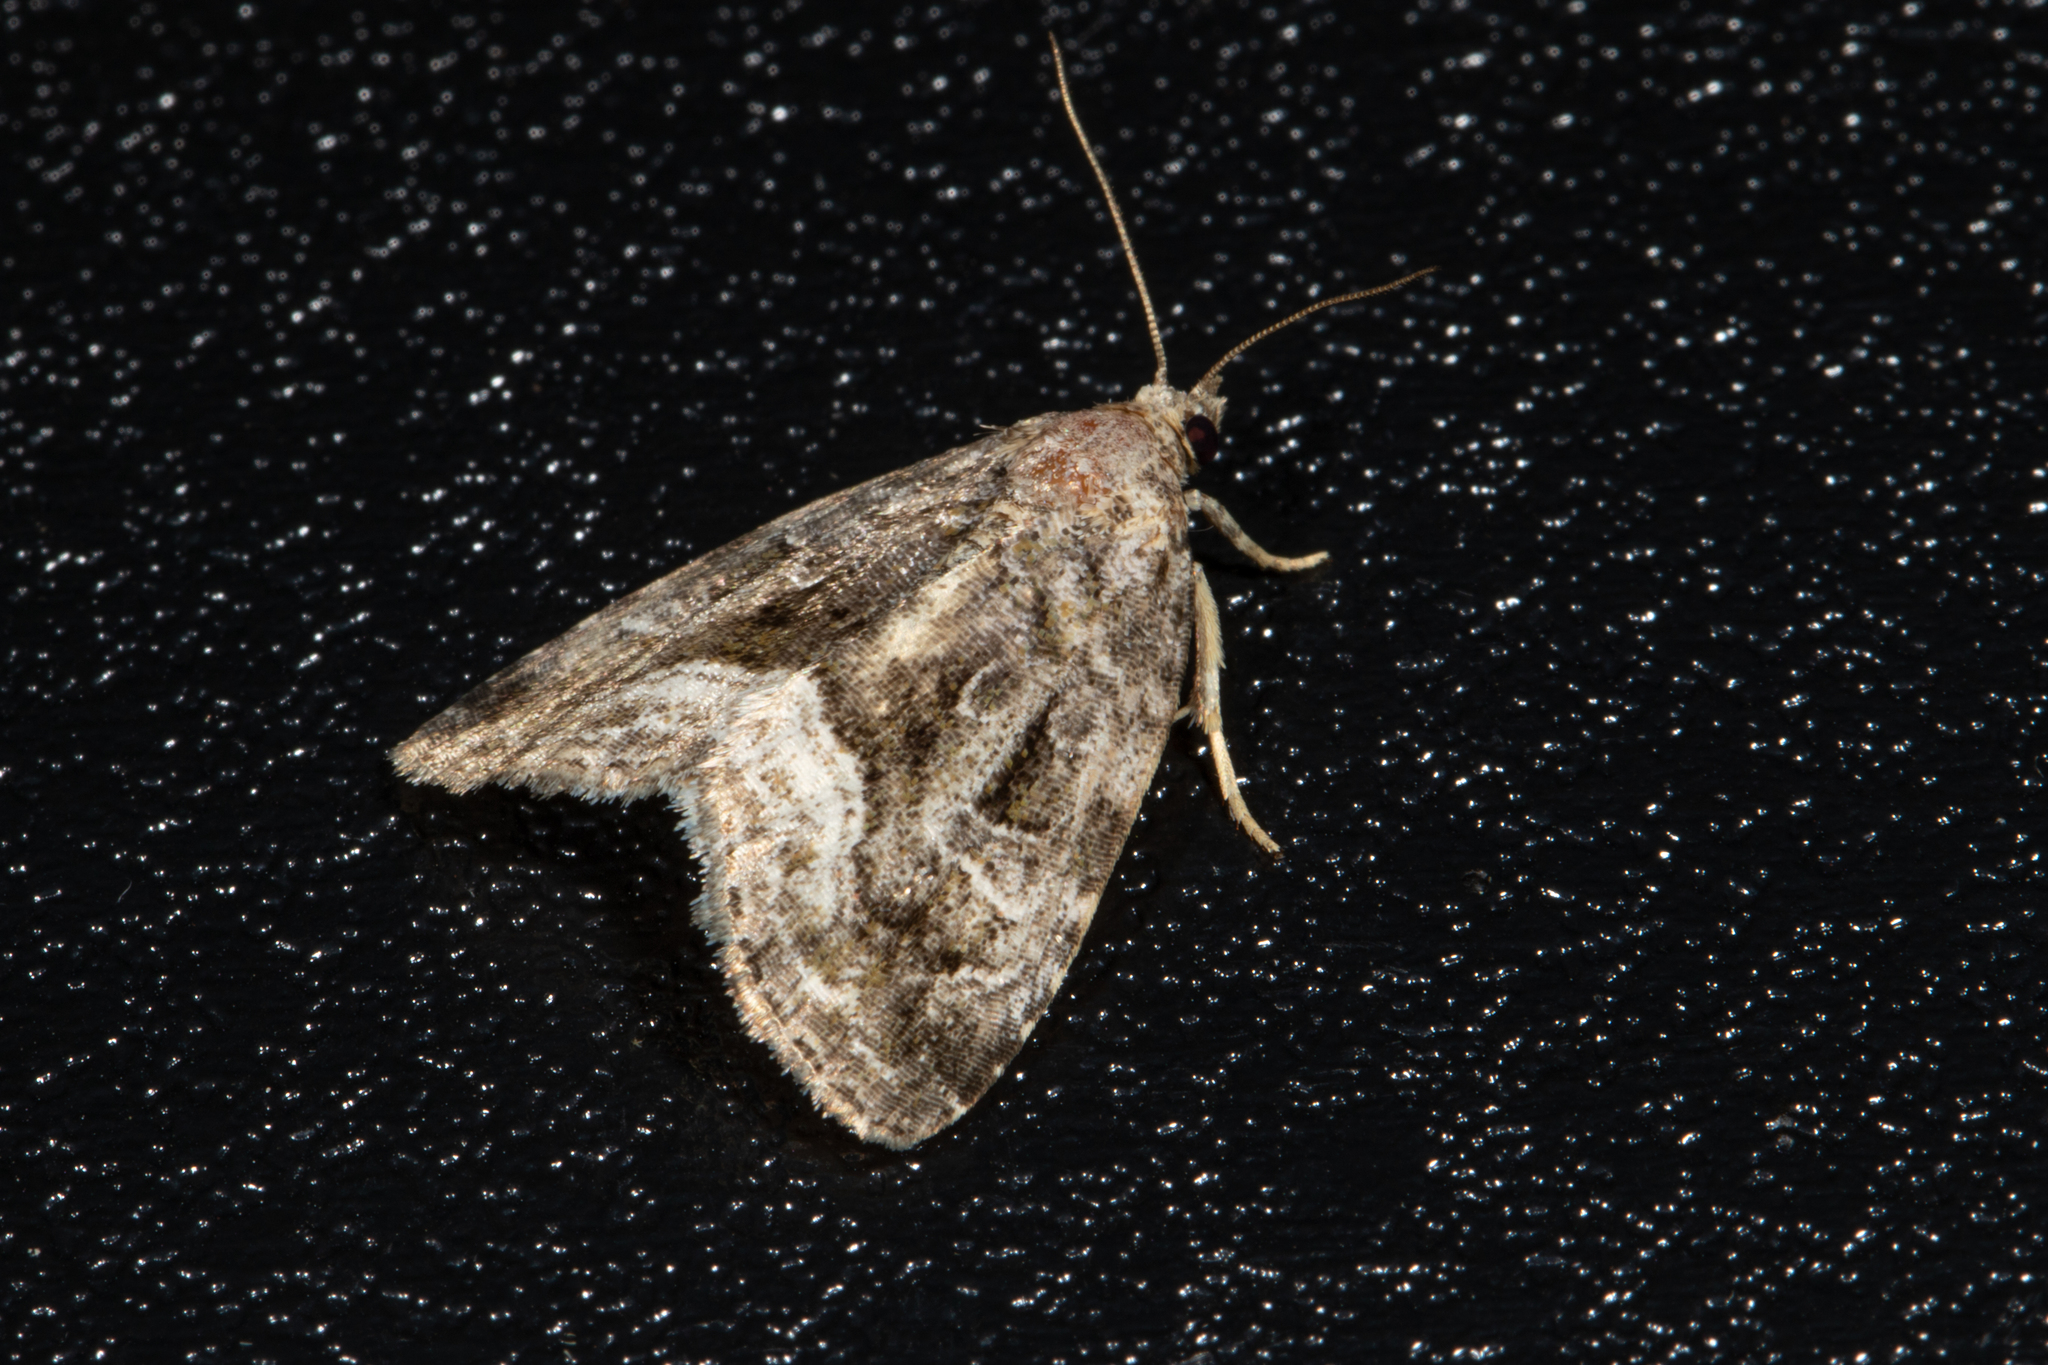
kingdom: Animalia
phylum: Arthropoda
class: Insecta
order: Lepidoptera
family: Noctuidae
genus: Protodeltote
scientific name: Protodeltote muscosula
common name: Large mossy glyph
